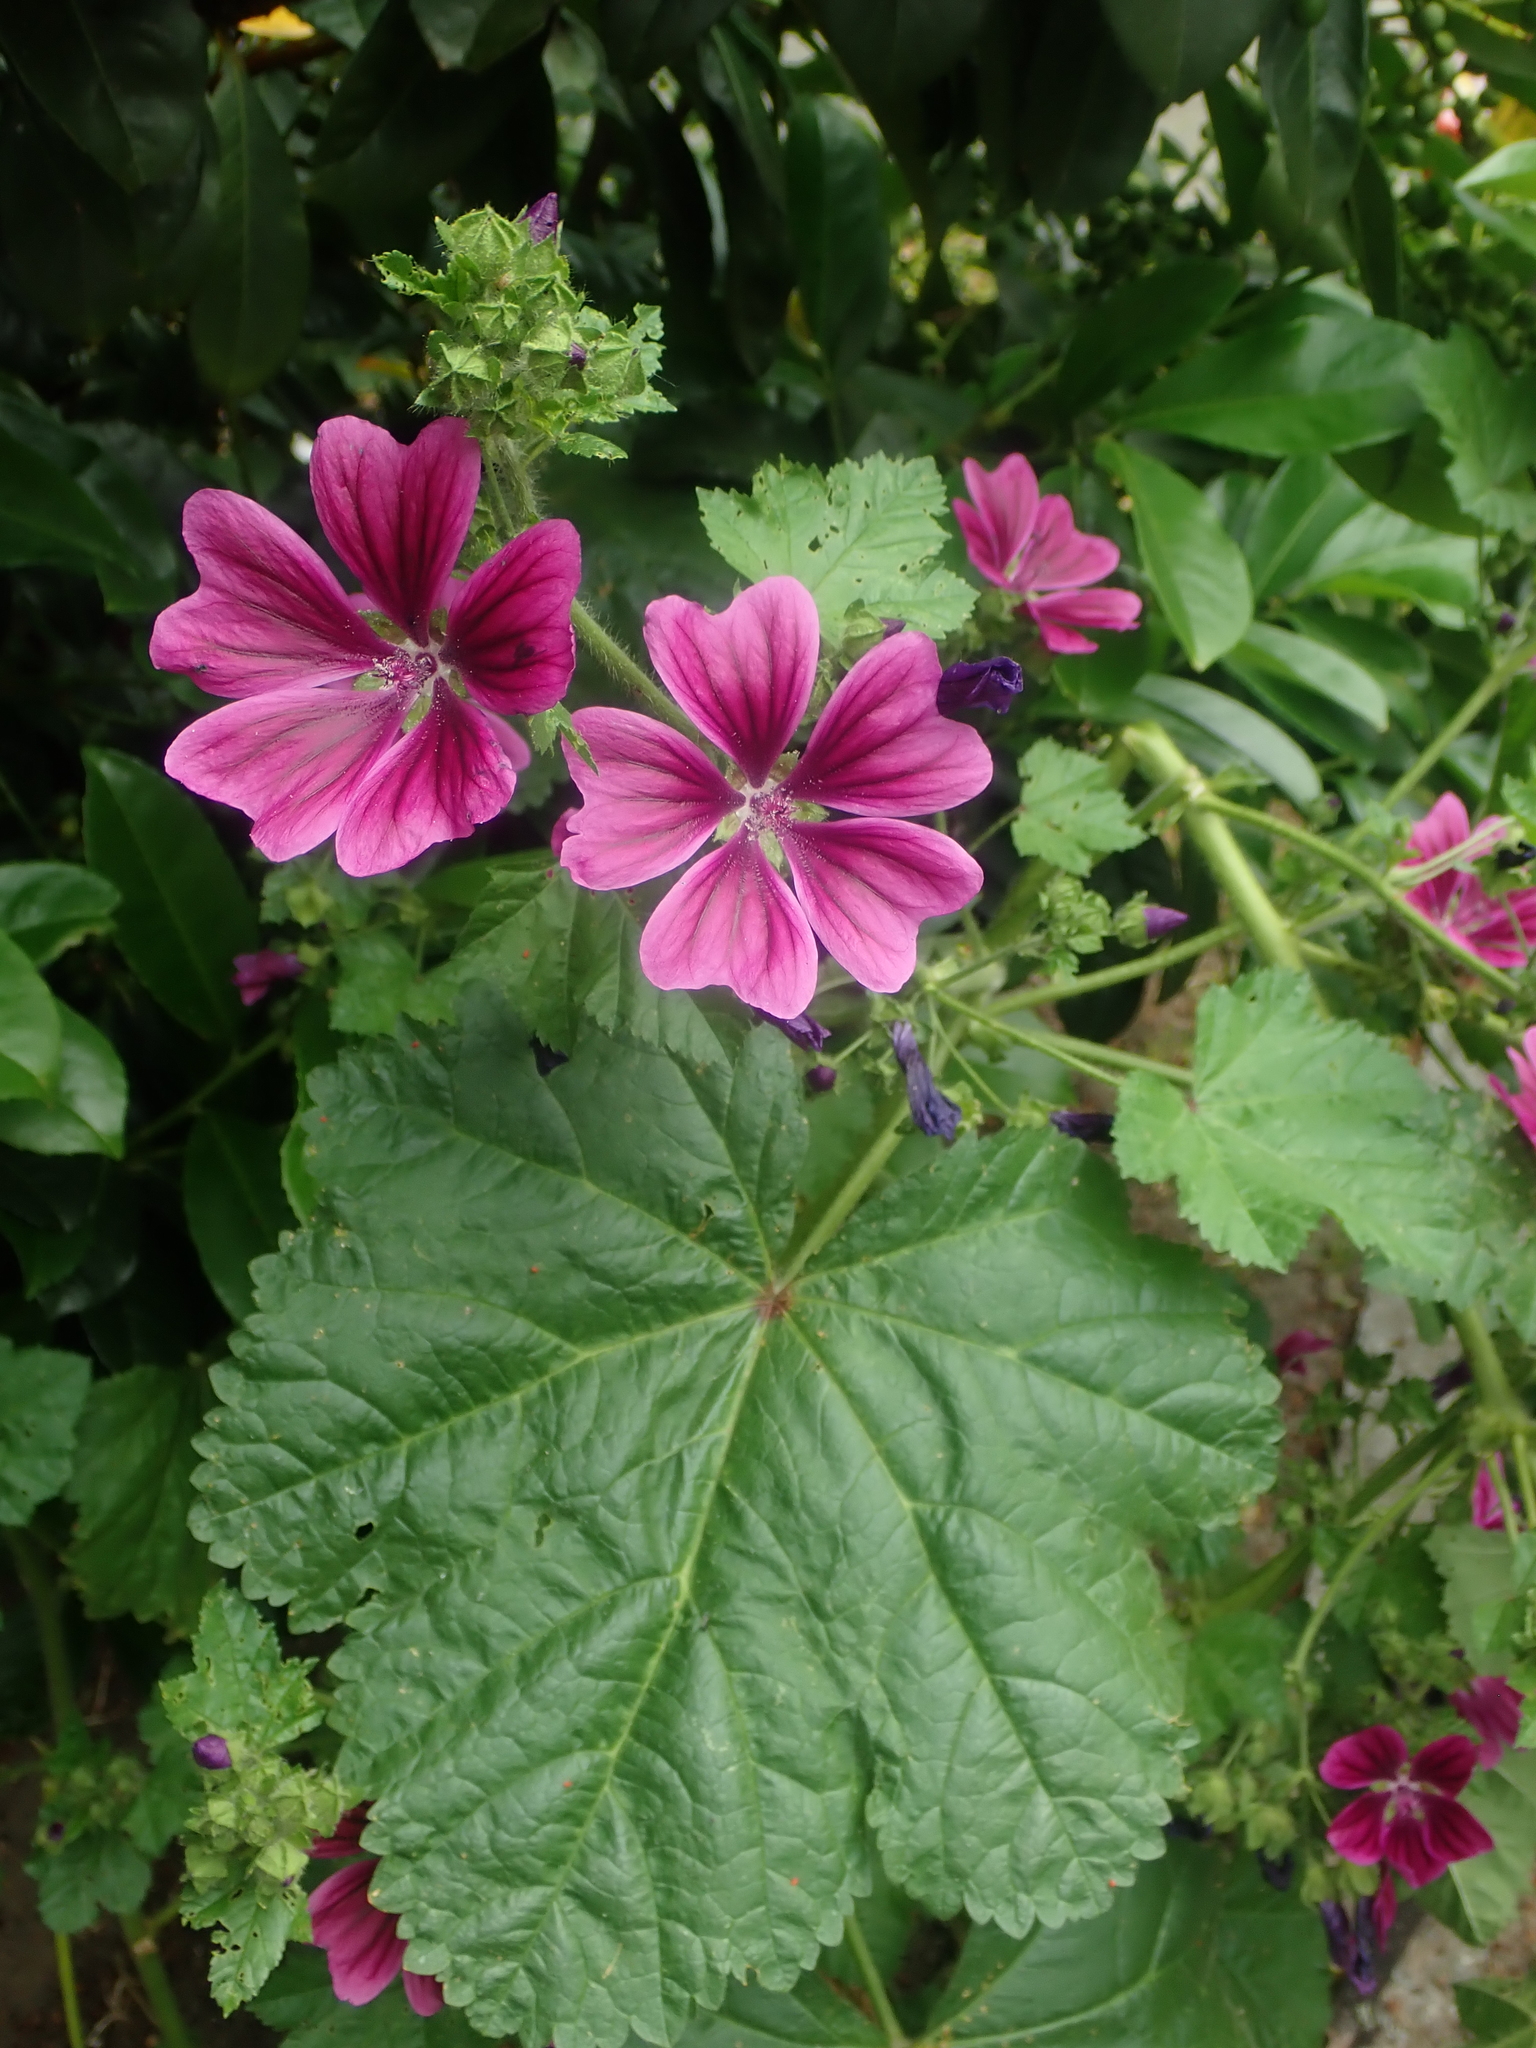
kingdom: Plantae
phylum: Tracheophyta
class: Magnoliopsida
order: Malvales
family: Malvaceae
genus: Malva
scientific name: Malva sylvestris
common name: Common mallow
